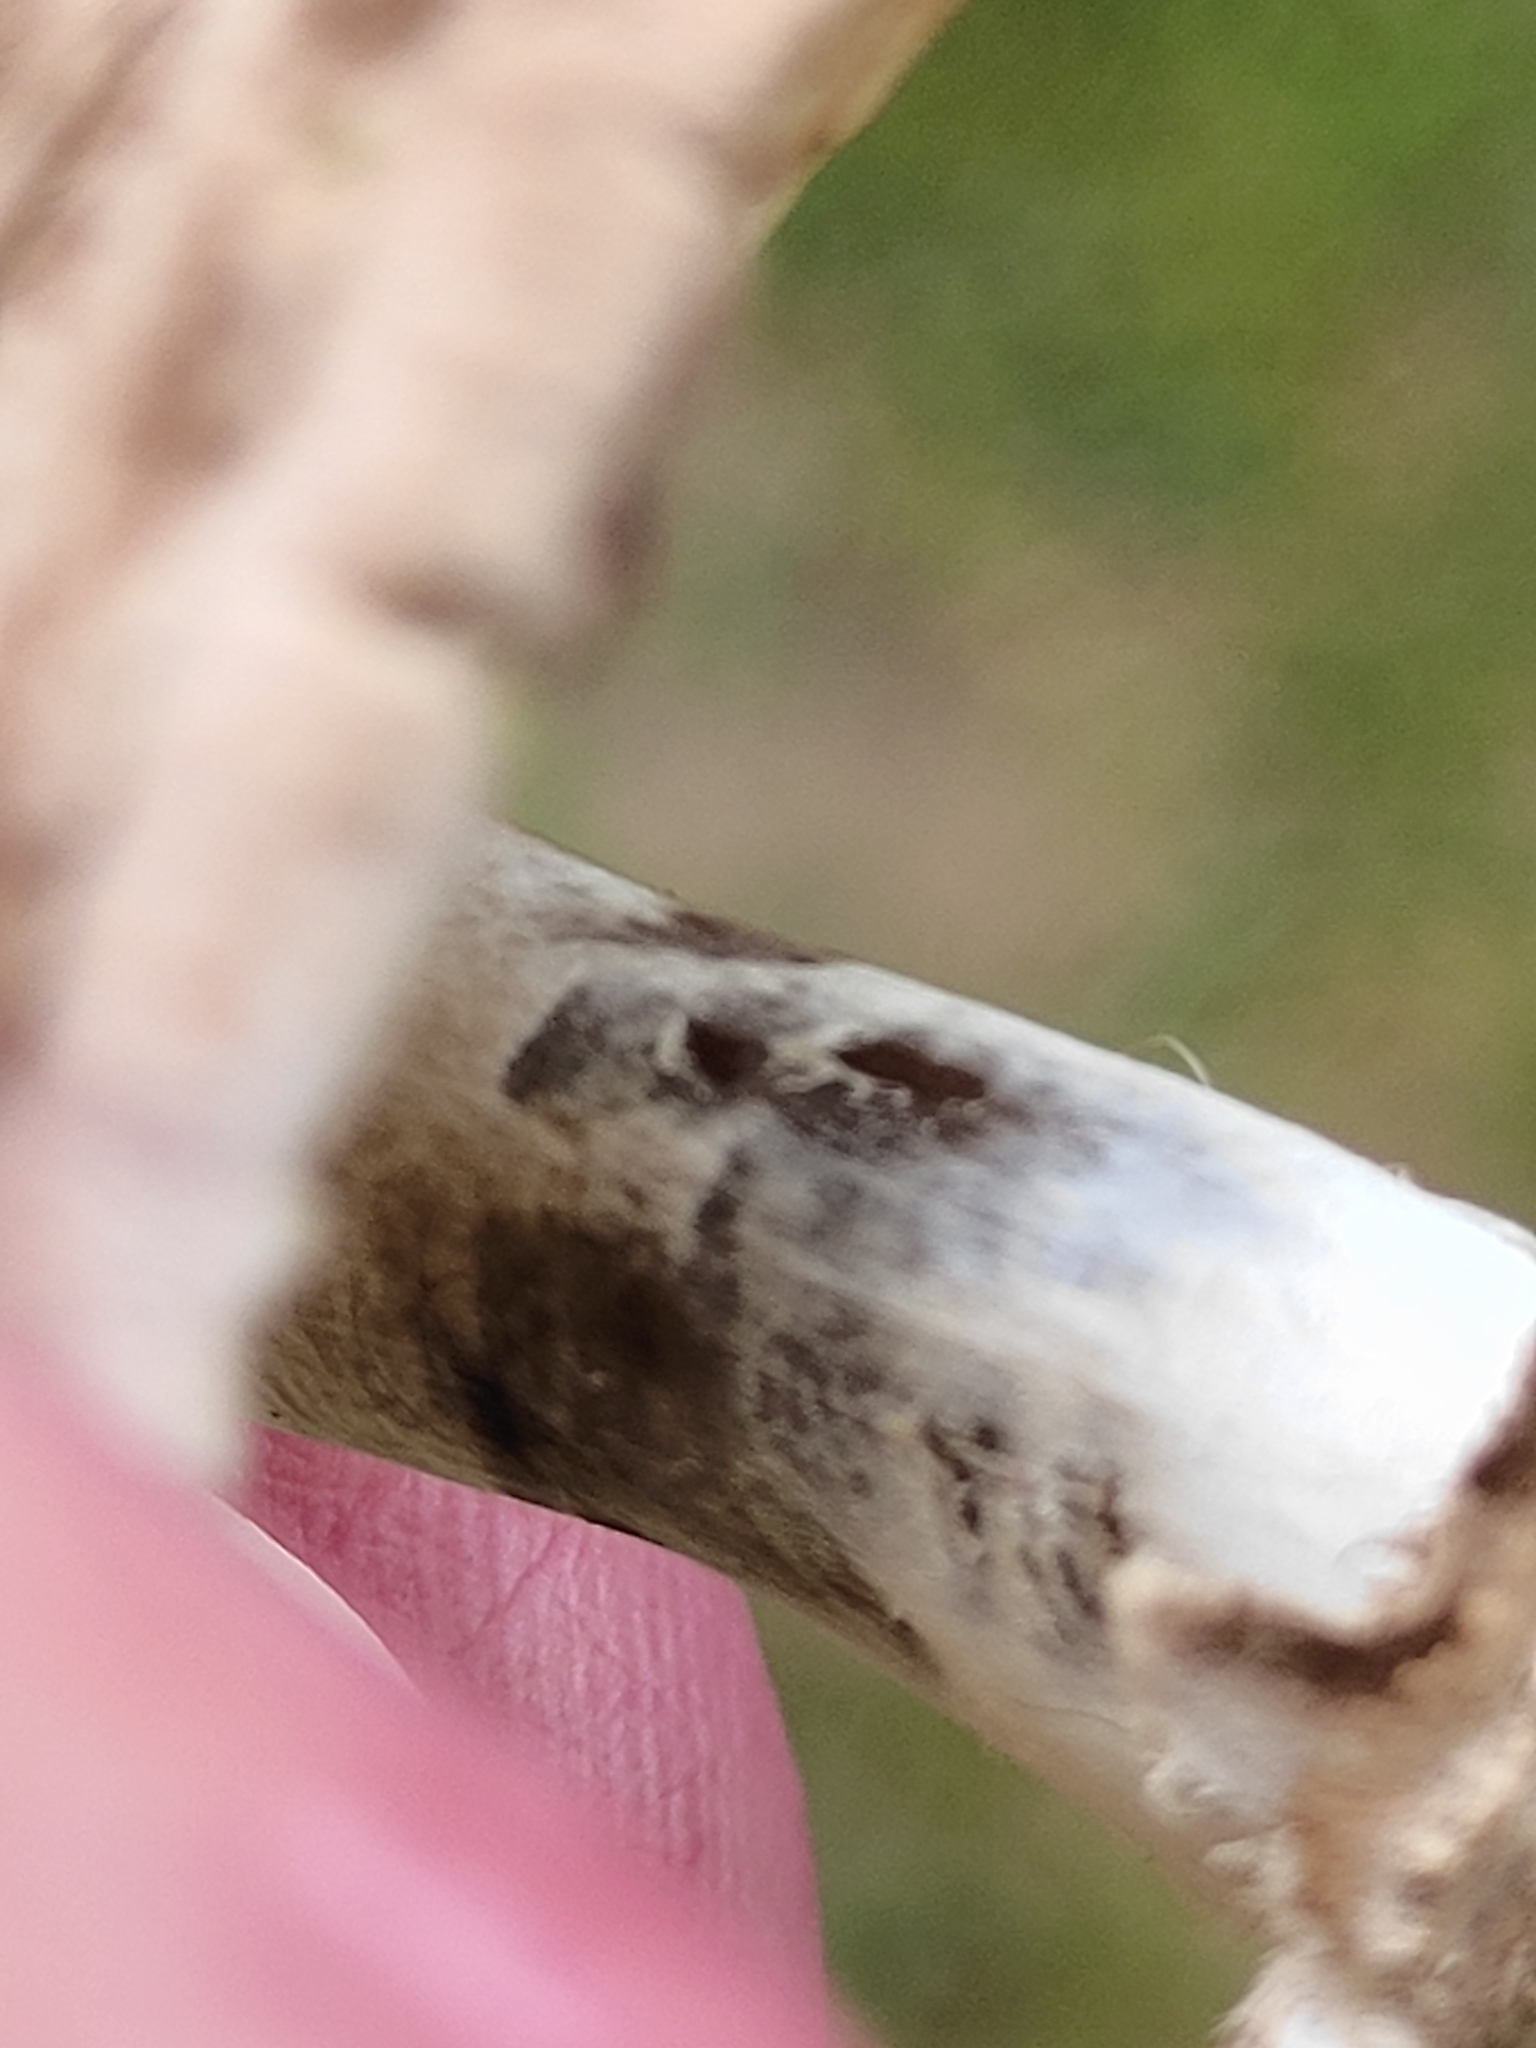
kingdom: Fungi
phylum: Basidiomycota
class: Agaricomycetes
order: Agaricales
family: Agaricaceae
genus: Chlorophyllum
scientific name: Chlorophyllum rhacodes
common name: Shaggy parasol
